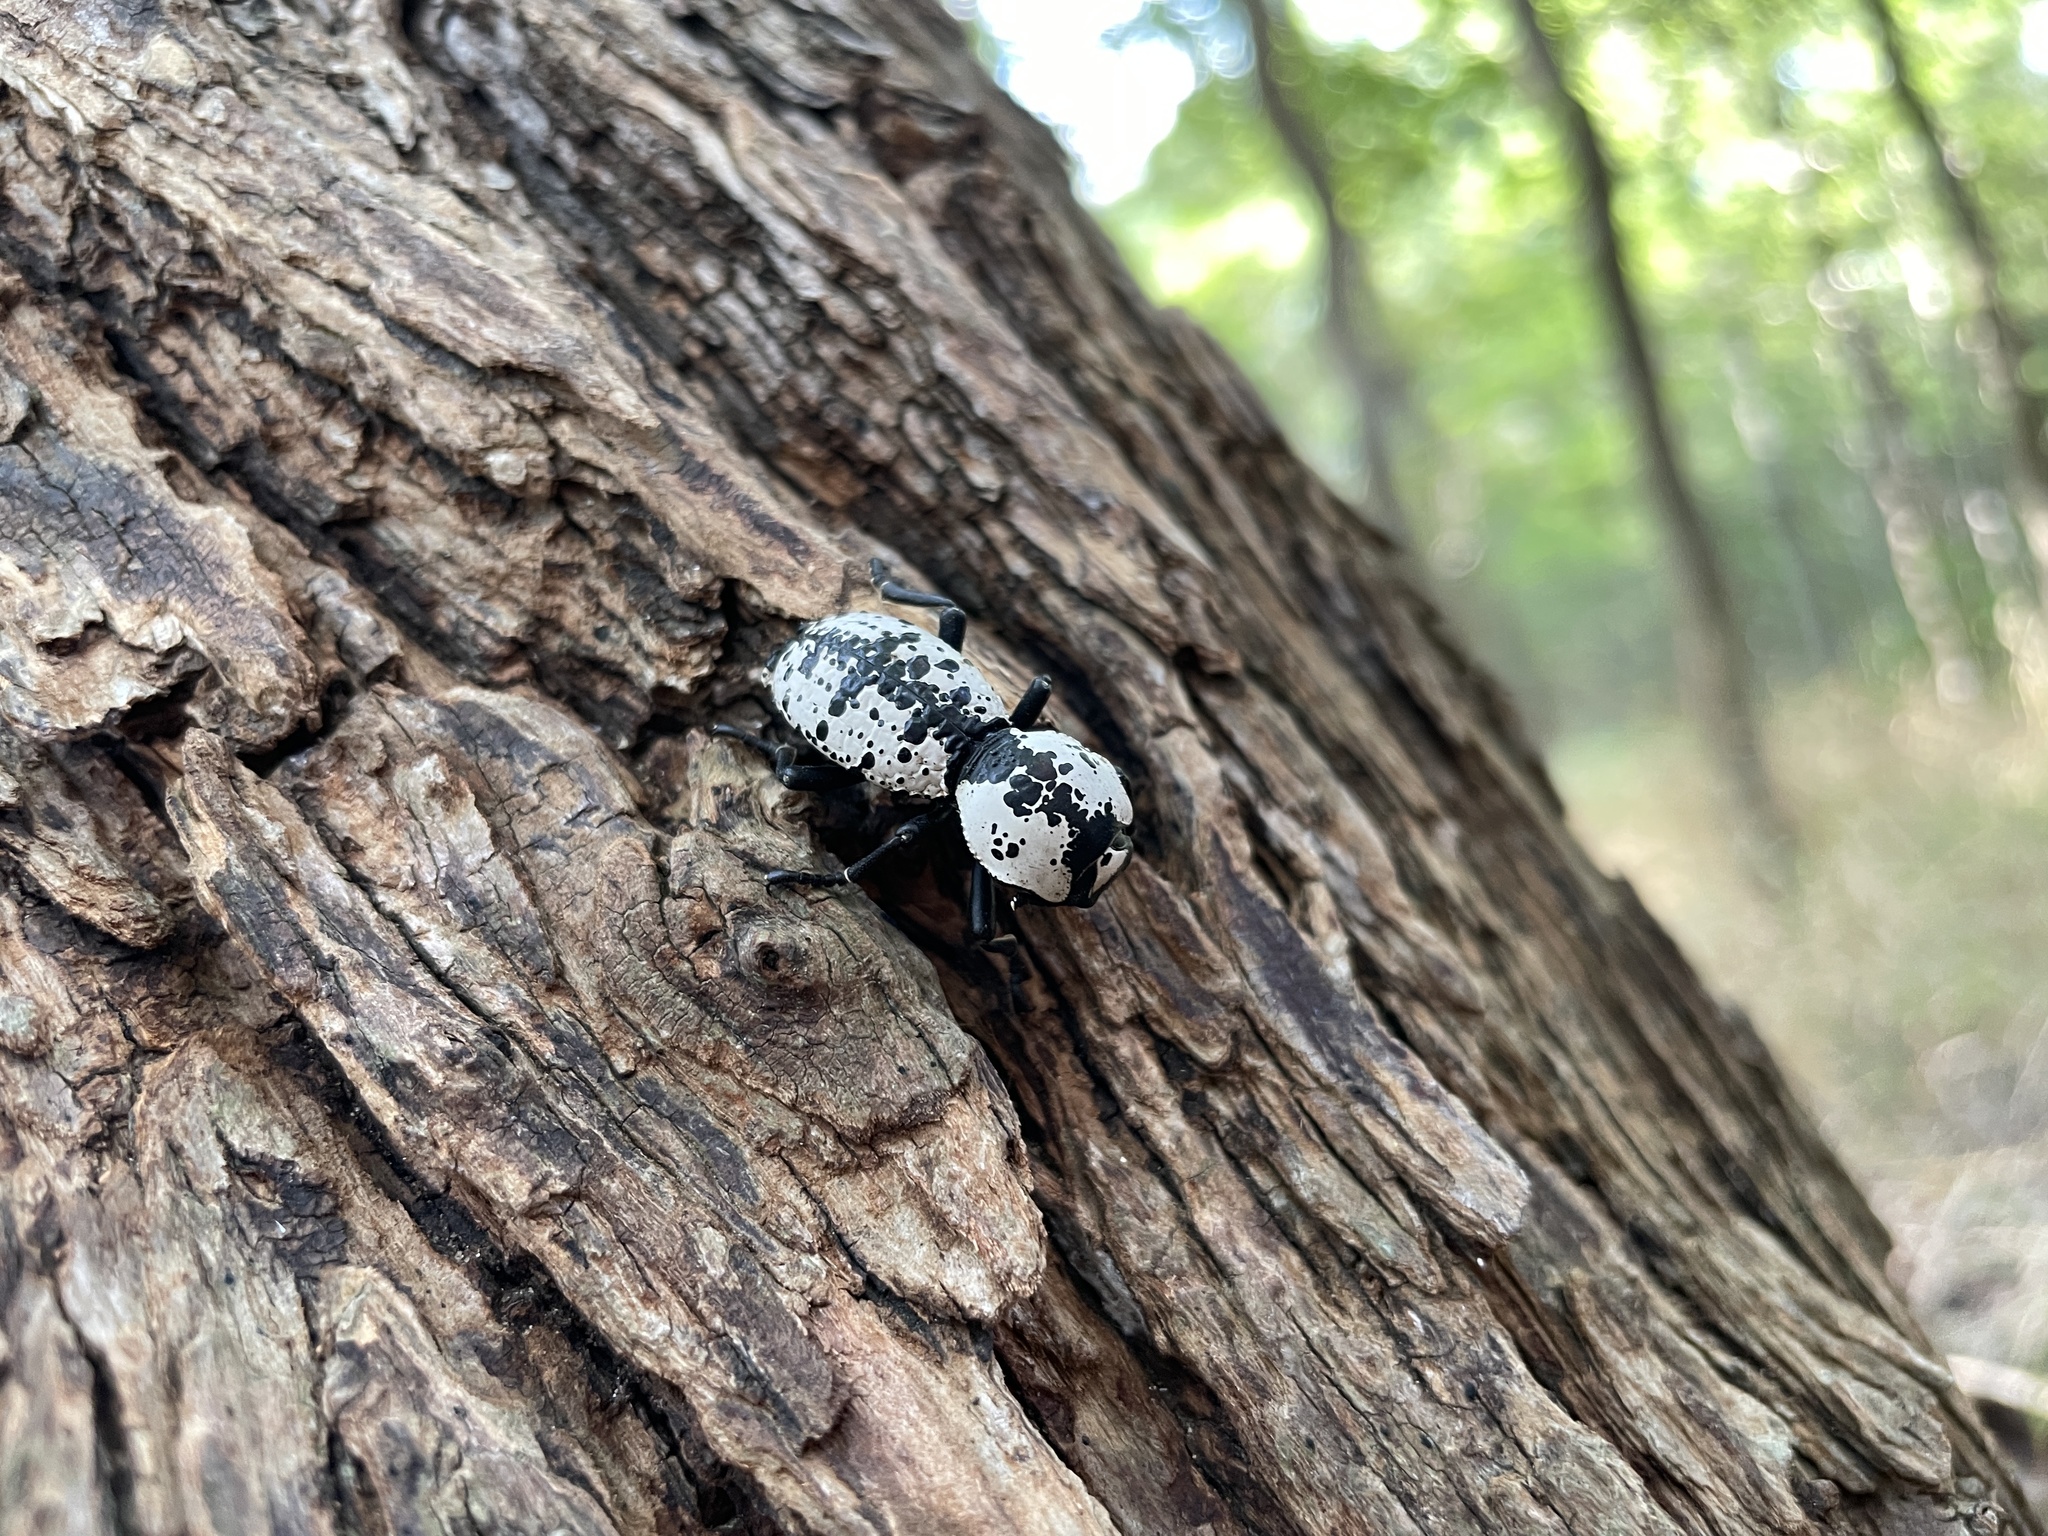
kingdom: Animalia
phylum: Arthropoda
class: Insecta
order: Coleoptera
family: Zopheridae
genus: Zopherus
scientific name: Zopherus nodulosus
